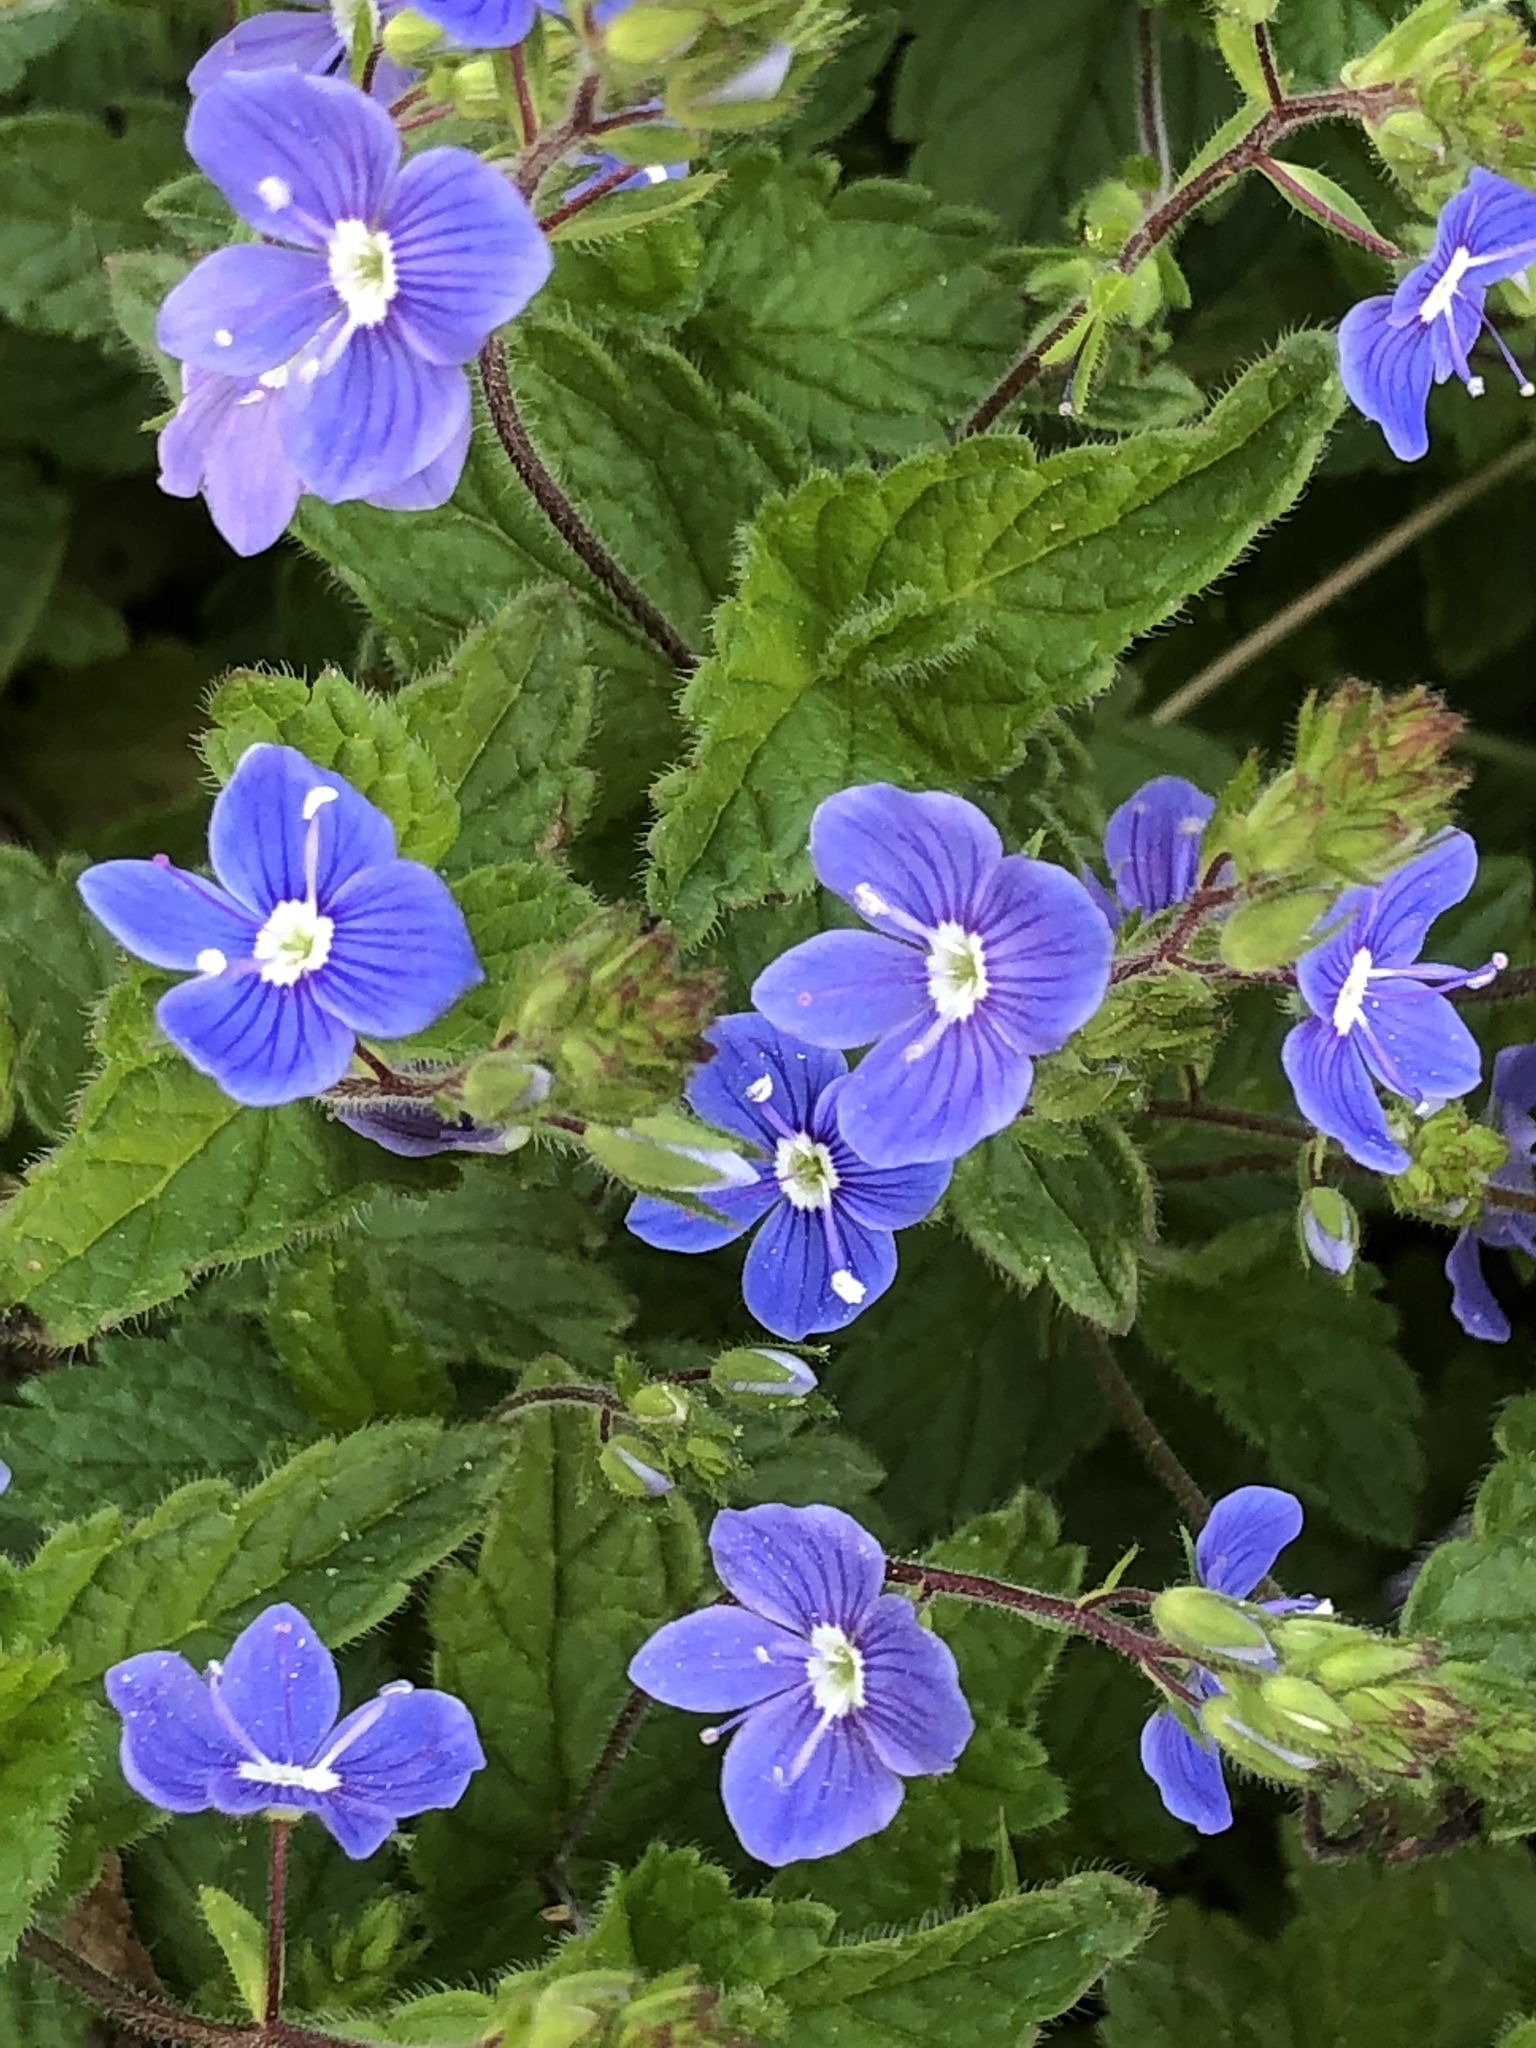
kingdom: Plantae
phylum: Tracheophyta
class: Magnoliopsida
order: Lamiales
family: Plantaginaceae
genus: Veronica
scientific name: Veronica chamaedrys
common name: Germander speedwell
